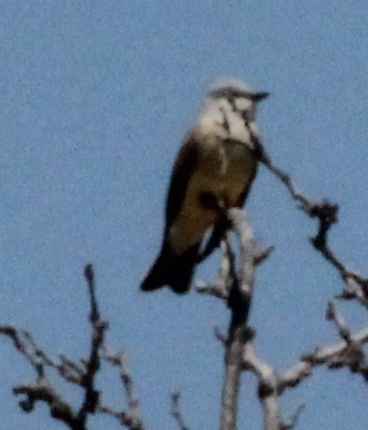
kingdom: Animalia
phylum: Chordata
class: Aves
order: Passeriformes
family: Tyrannidae
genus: Tyrannus
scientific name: Tyrannus verticalis
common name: Western kingbird
